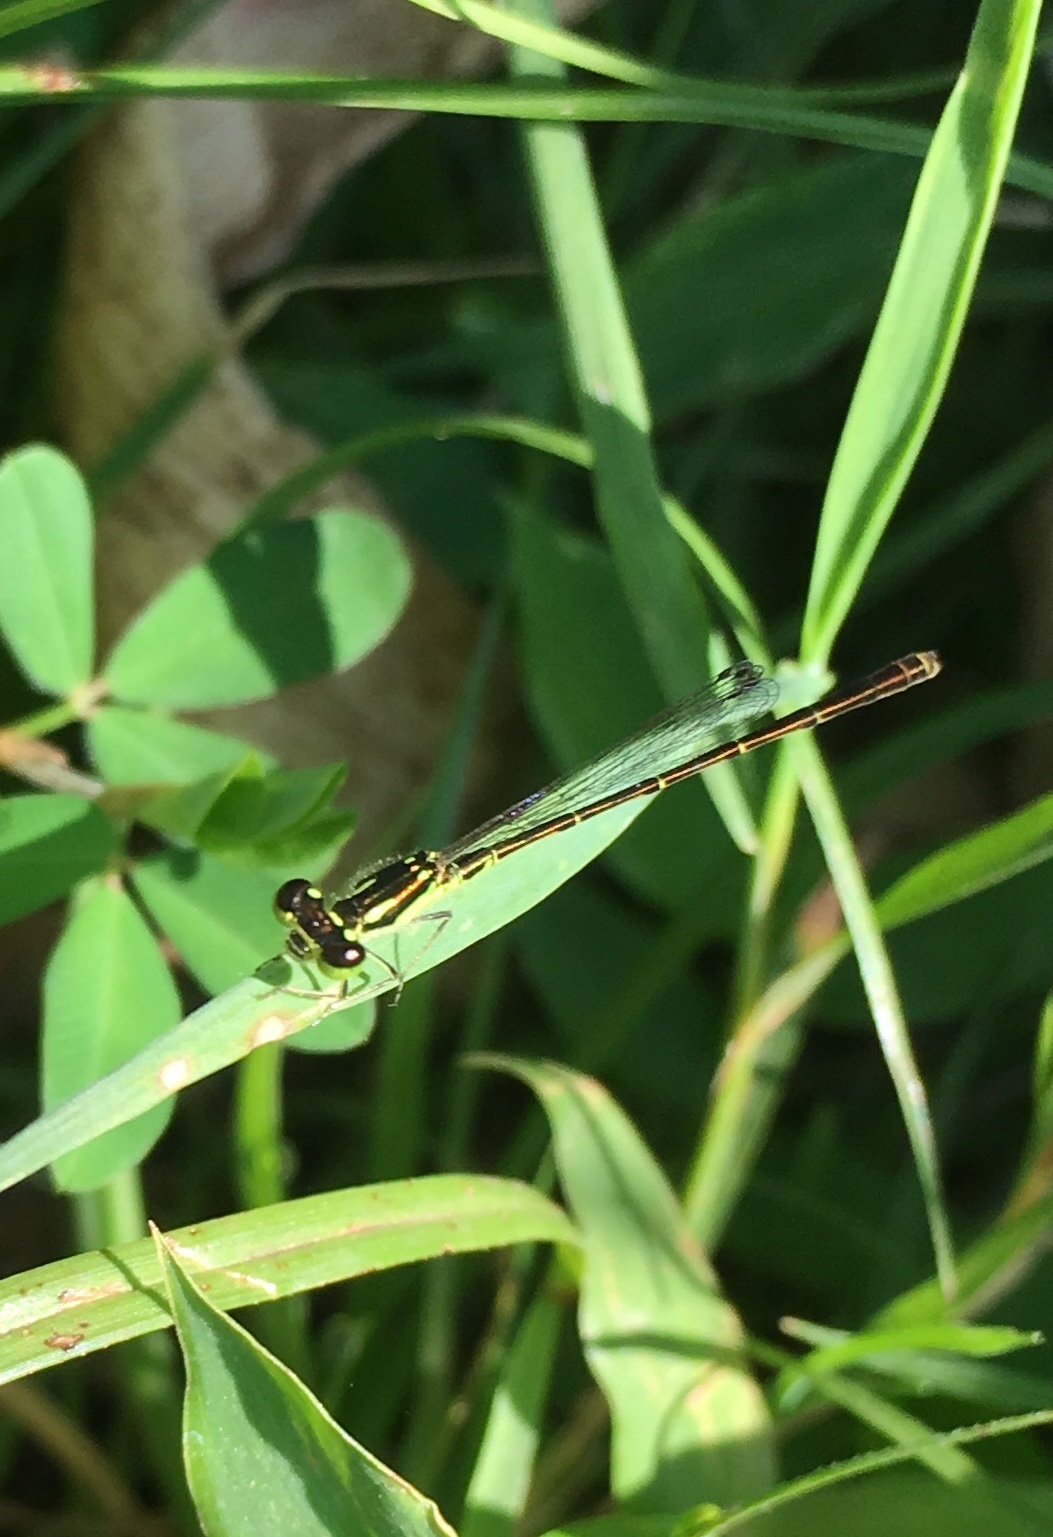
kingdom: Animalia
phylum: Arthropoda
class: Insecta
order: Odonata
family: Coenagrionidae
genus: Ischnura
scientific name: Ischnura posita
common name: Fragile forktail
